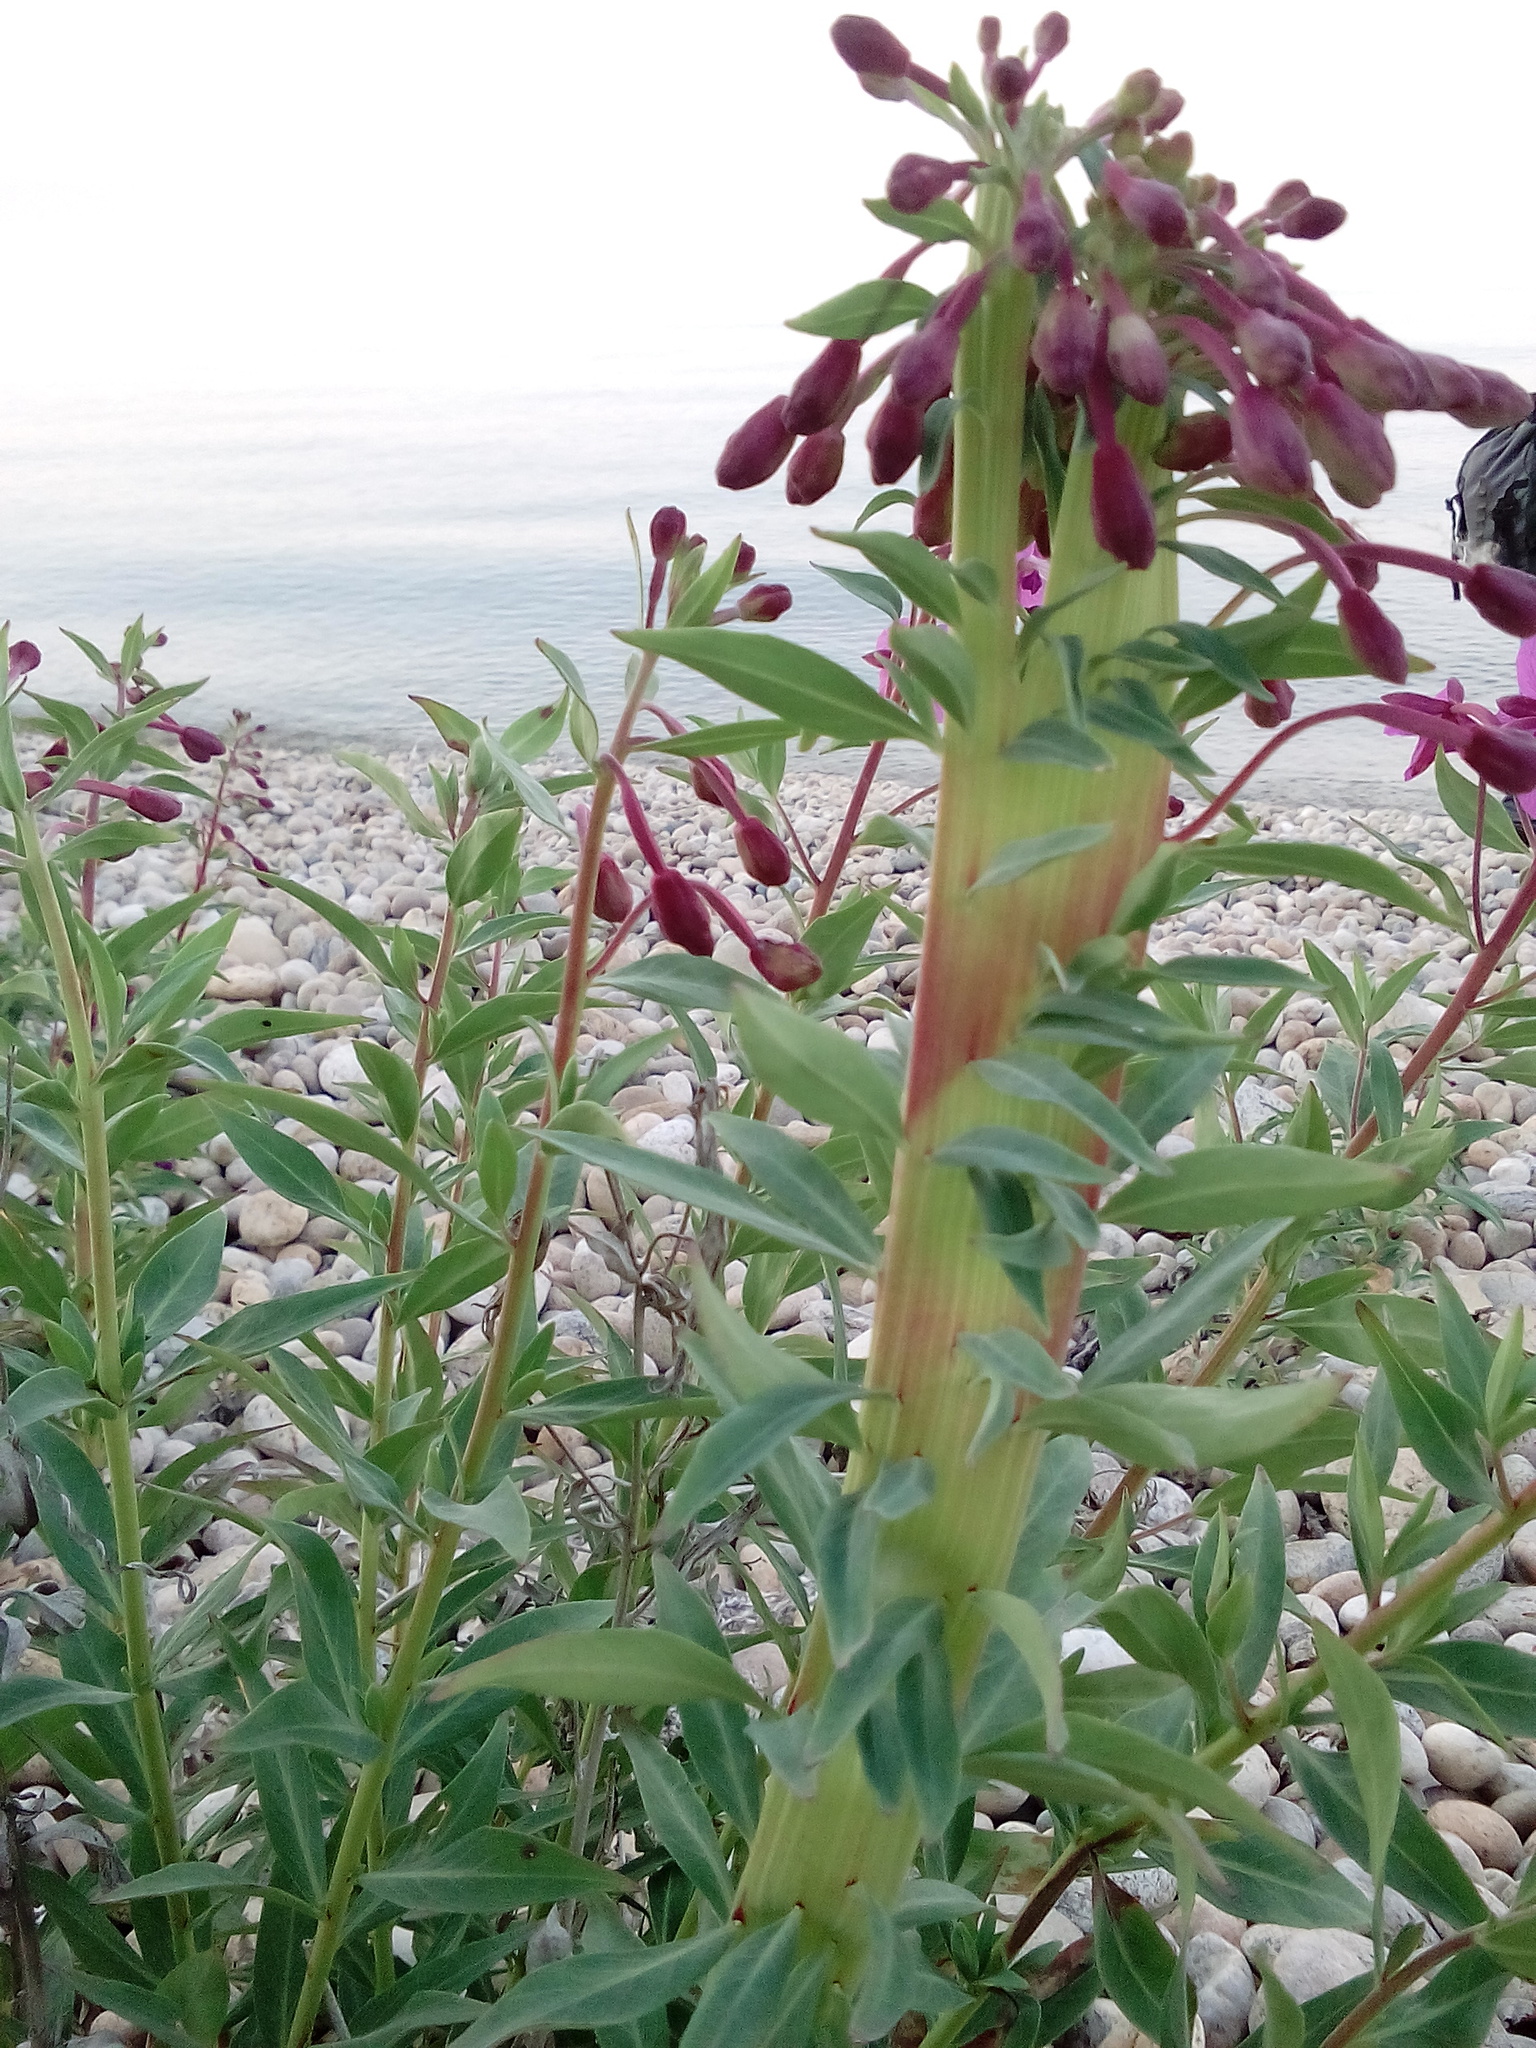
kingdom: Plantae
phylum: Tracheophyta
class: Magnoliopsida
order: Myrtales
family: Onagraceae
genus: Chamaenerion
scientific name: Chamaenerion latifolium
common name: Dwarf fireweed
